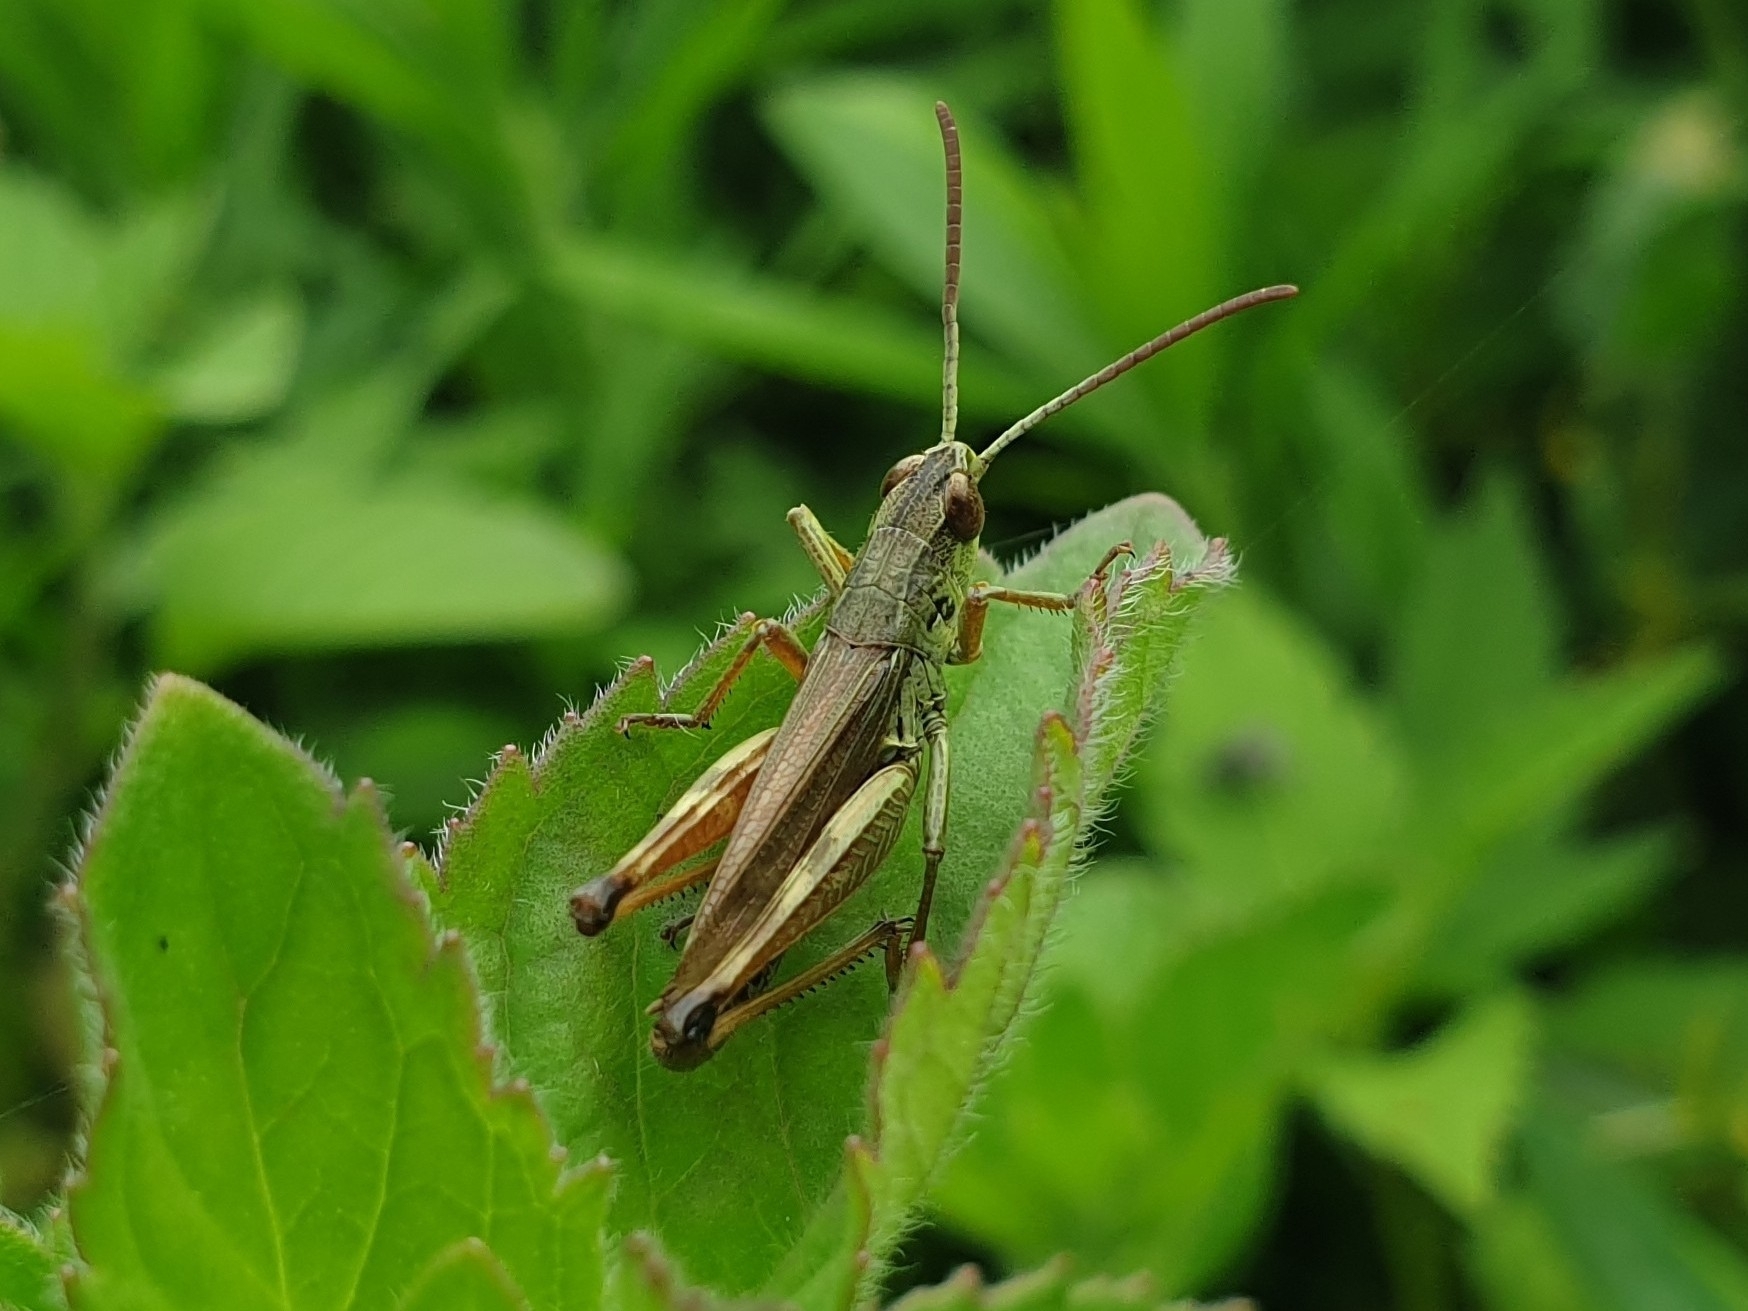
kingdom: Animalia
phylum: Arthropoda
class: Insecta
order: Orthoptera
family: Acrididae
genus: Pseudochorthippus
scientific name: Pseudochorthippus parallelus
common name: Meadow grasshopper
